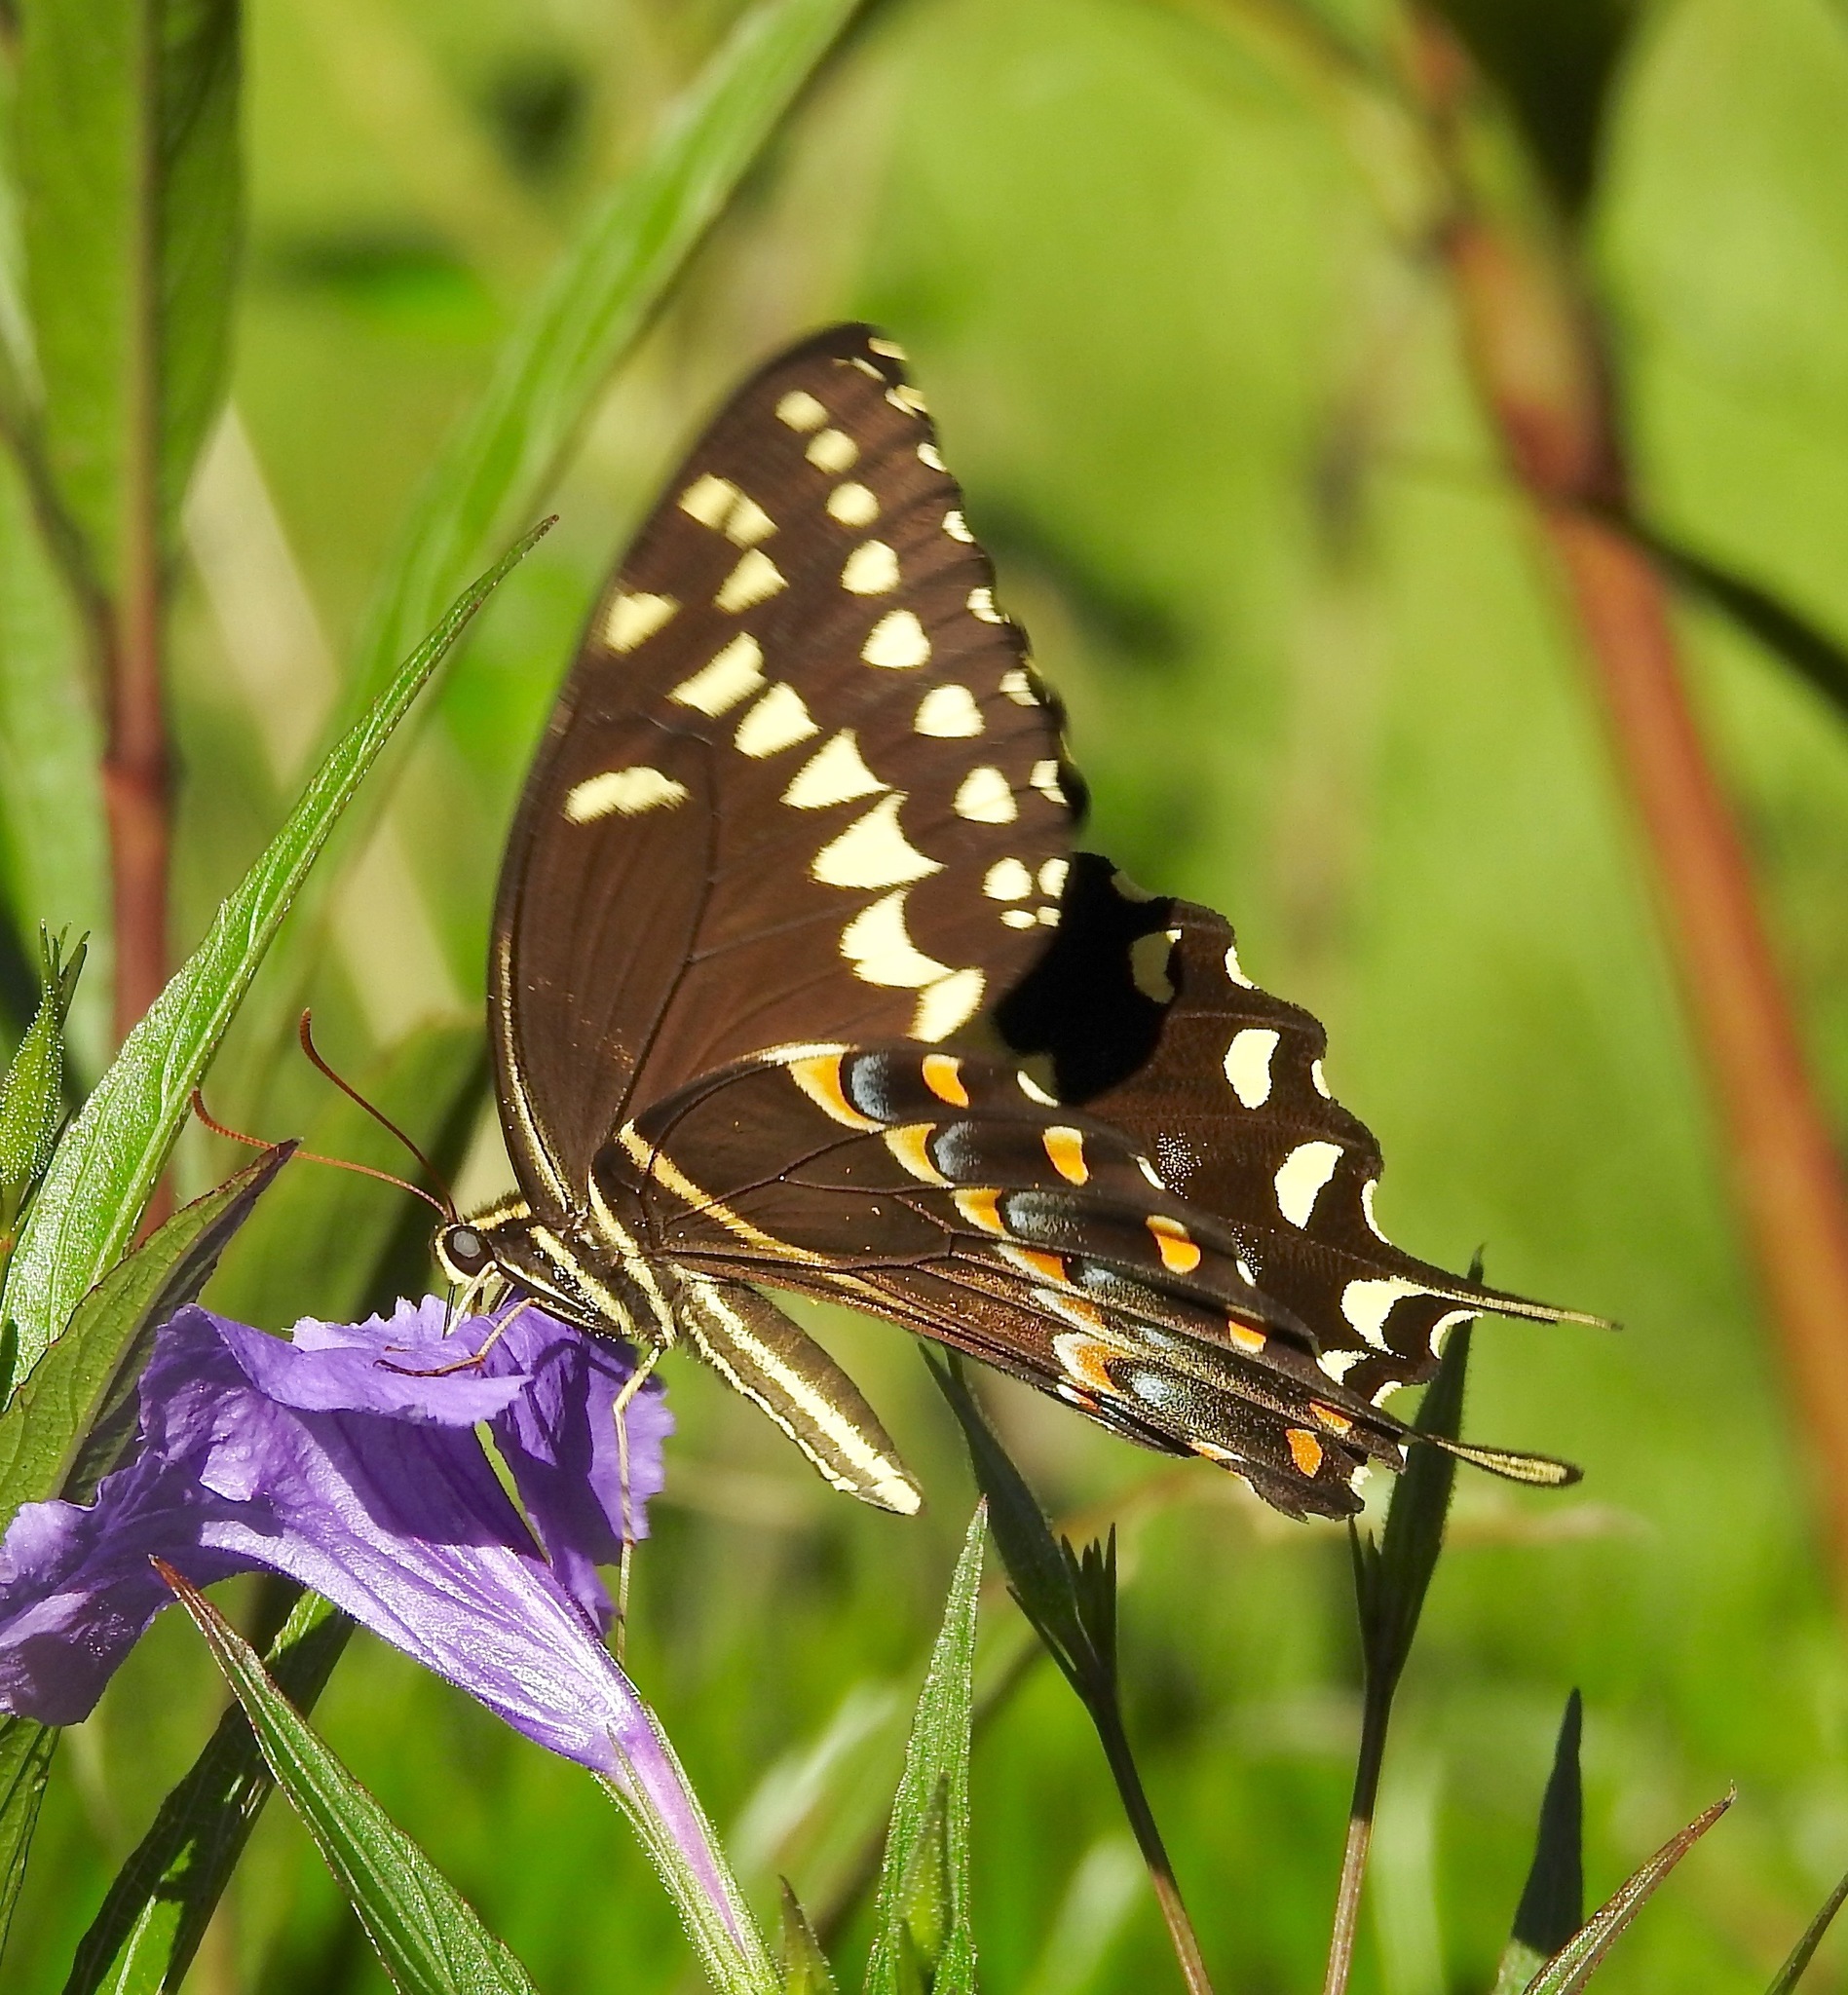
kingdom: Animalia
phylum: Arthropoda
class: Insecta
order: Lepidoptera
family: Papilionidae
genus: Papilio
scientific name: Papilio palamedes
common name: Palamedes swallowtail
